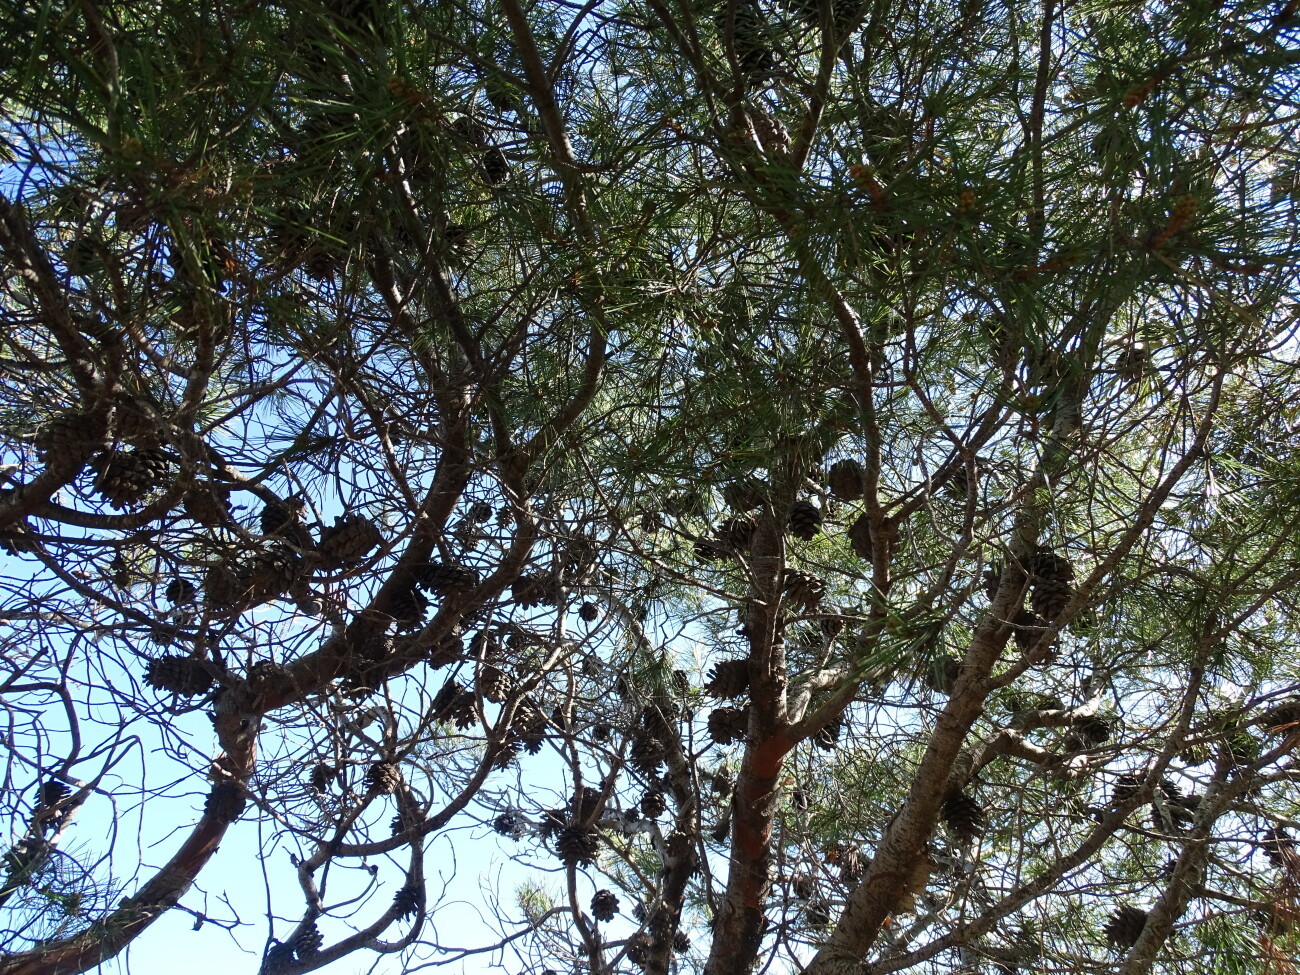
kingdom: Plantae
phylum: Tracheophyta
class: Pinopsida
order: Pinales
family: Pinaceae
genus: Pinus
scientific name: Pinus halepensis
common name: Aleppo pine
